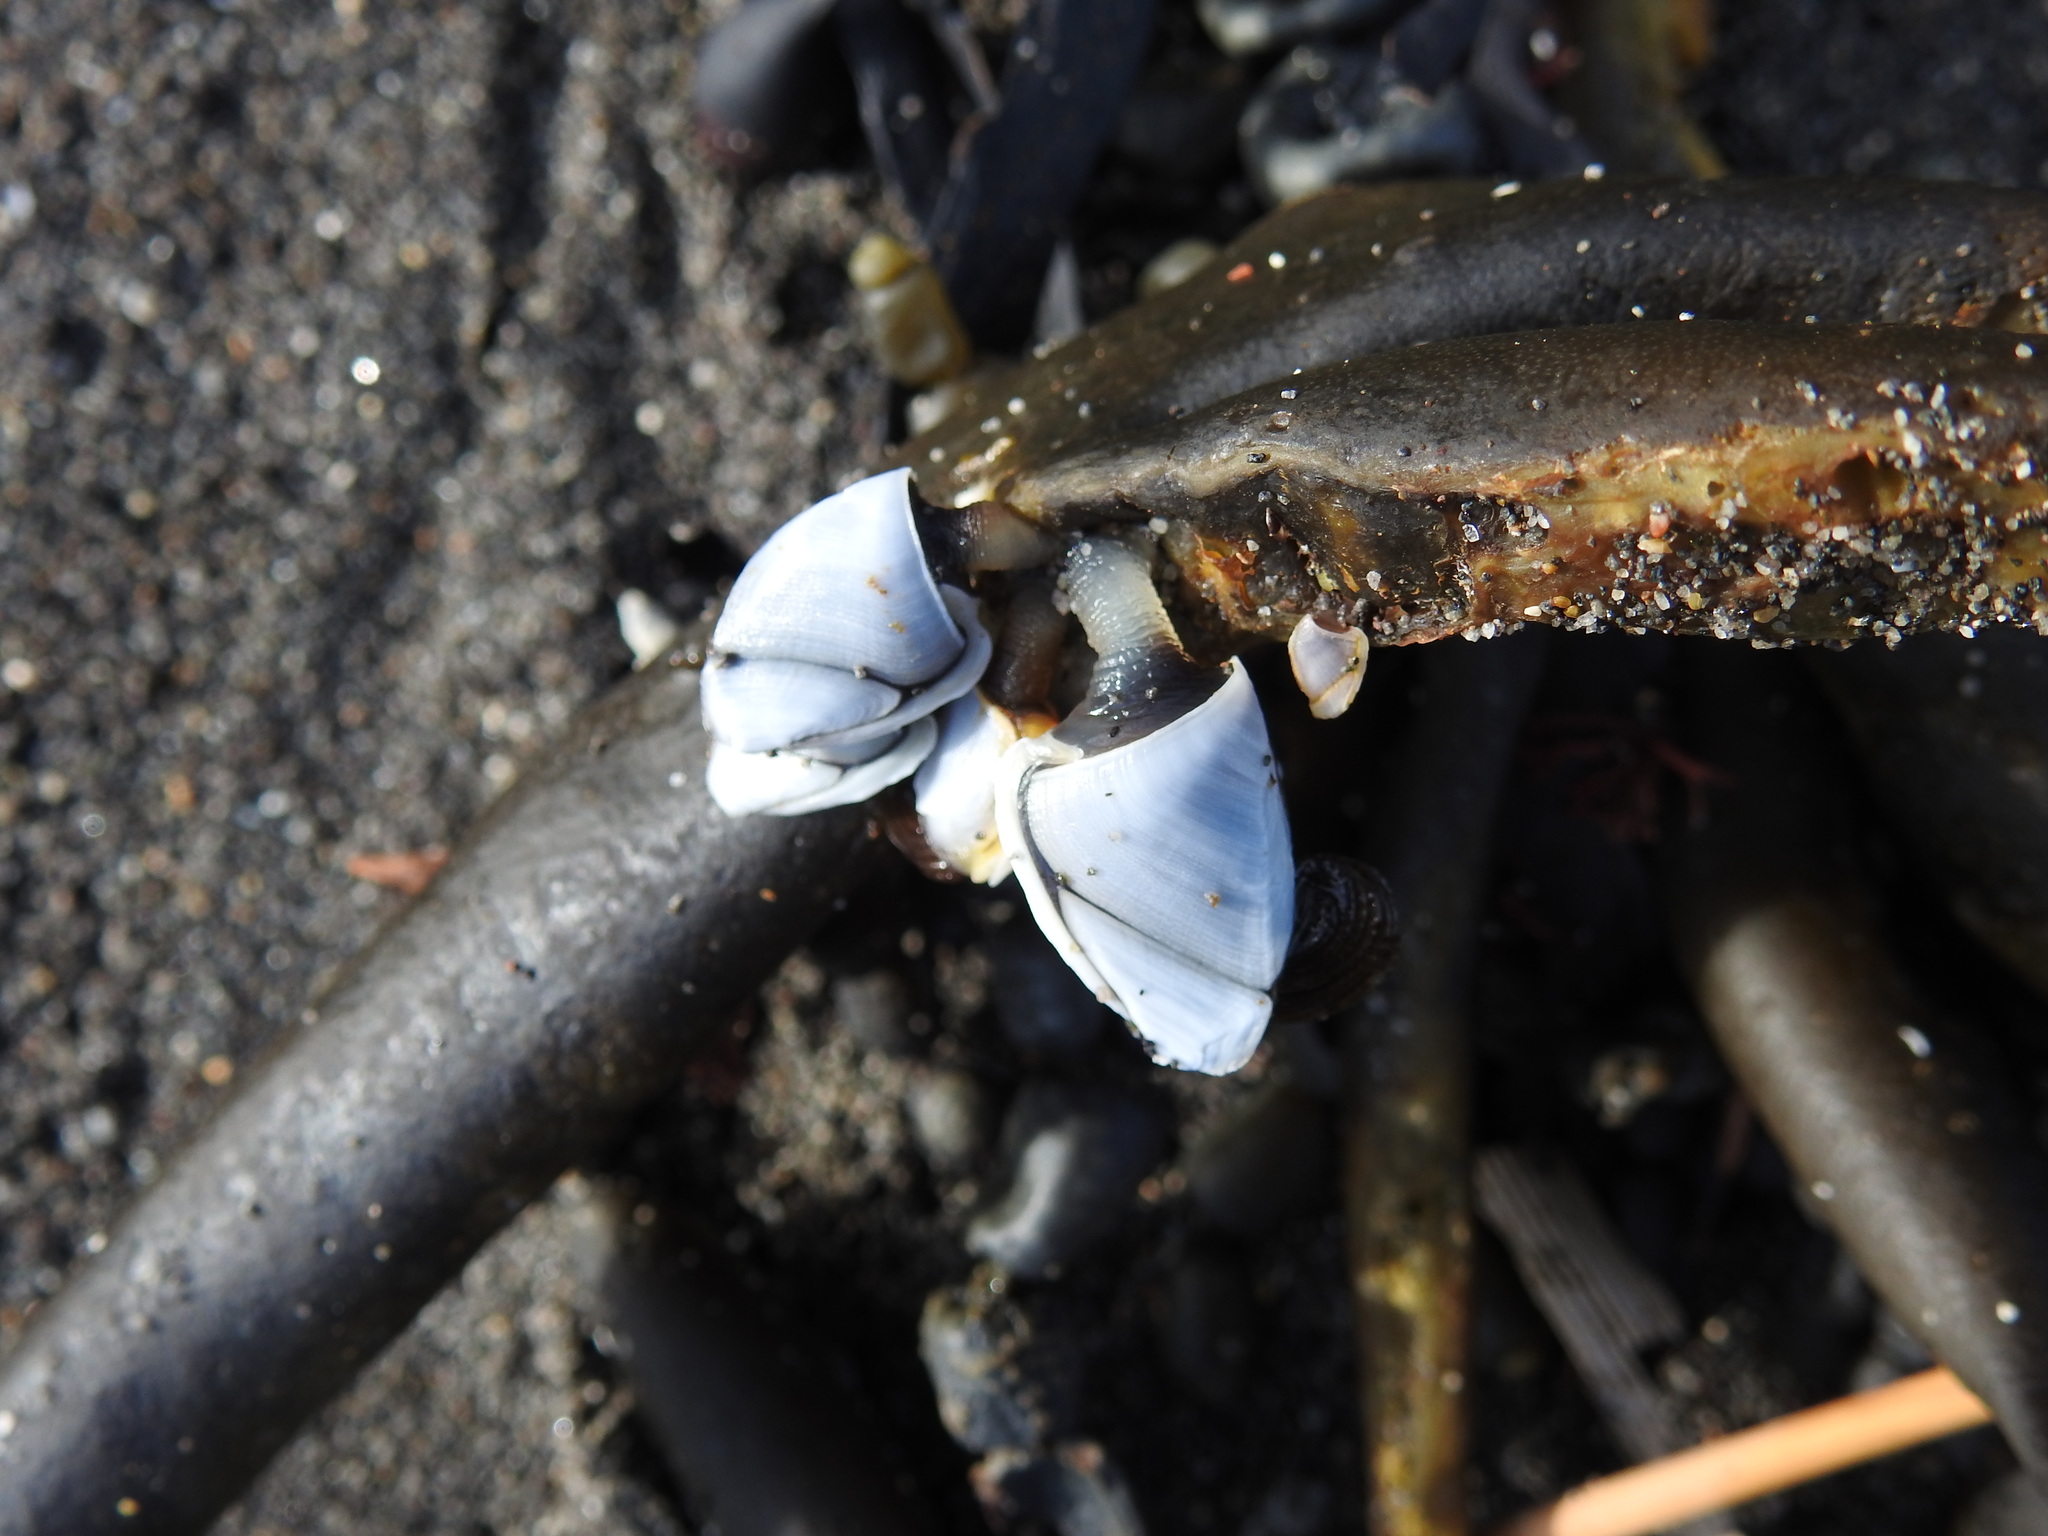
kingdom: Animalia
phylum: Arthropoda
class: Maxillopoda
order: Pedunculata
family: Lepadidae
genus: Lepas
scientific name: Lepas australis
